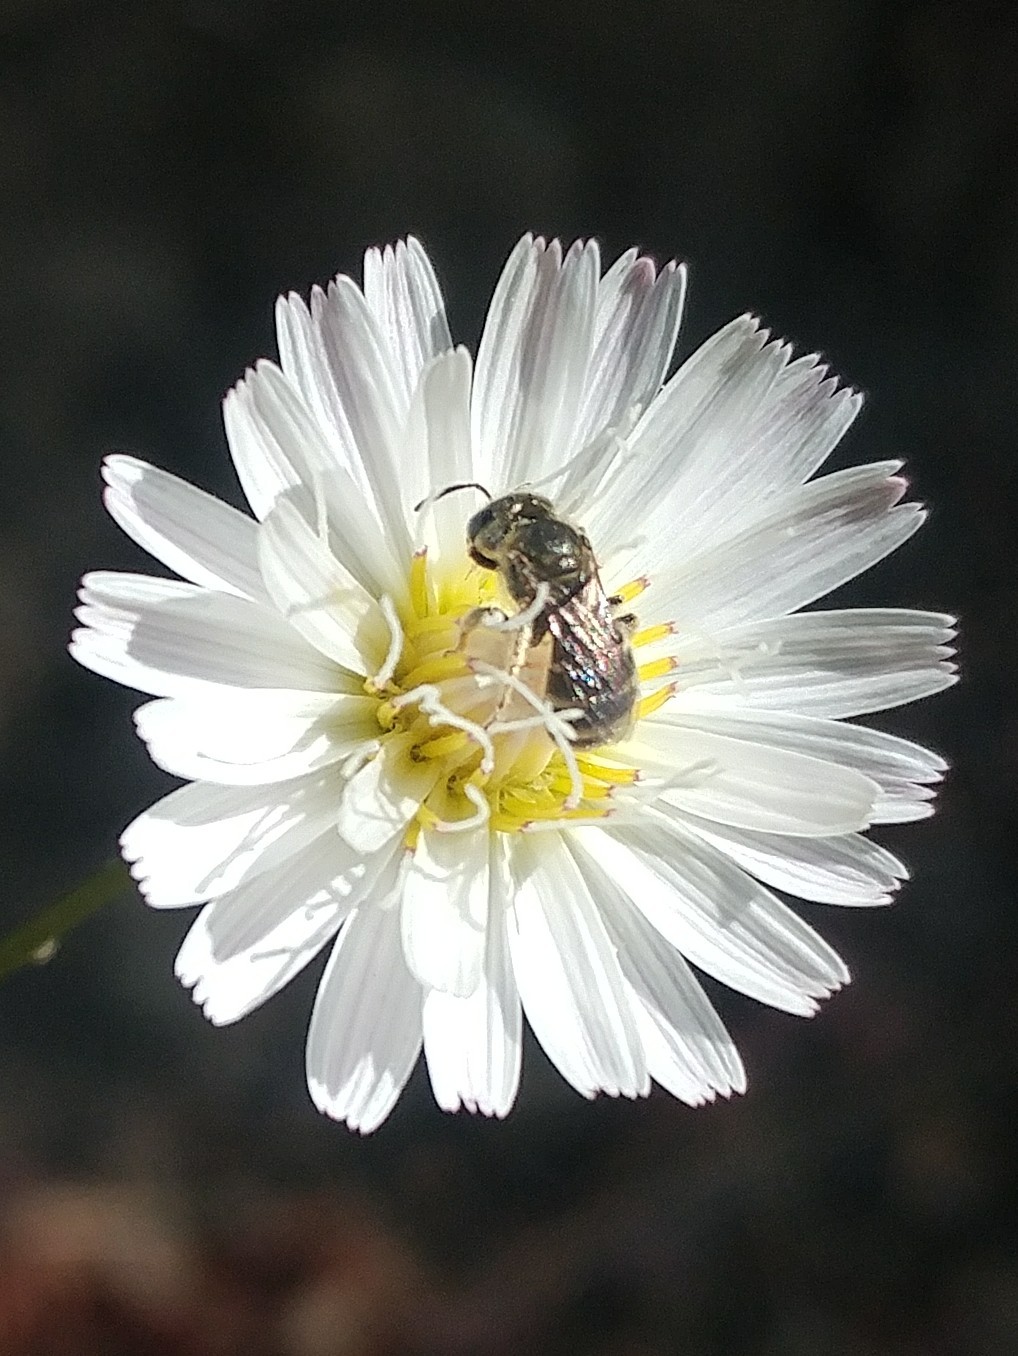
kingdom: Animalia
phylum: Arthropoda
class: Insecta
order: Hymenoptera
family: Halictidae
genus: Halictus
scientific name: Halictus tripartitus
